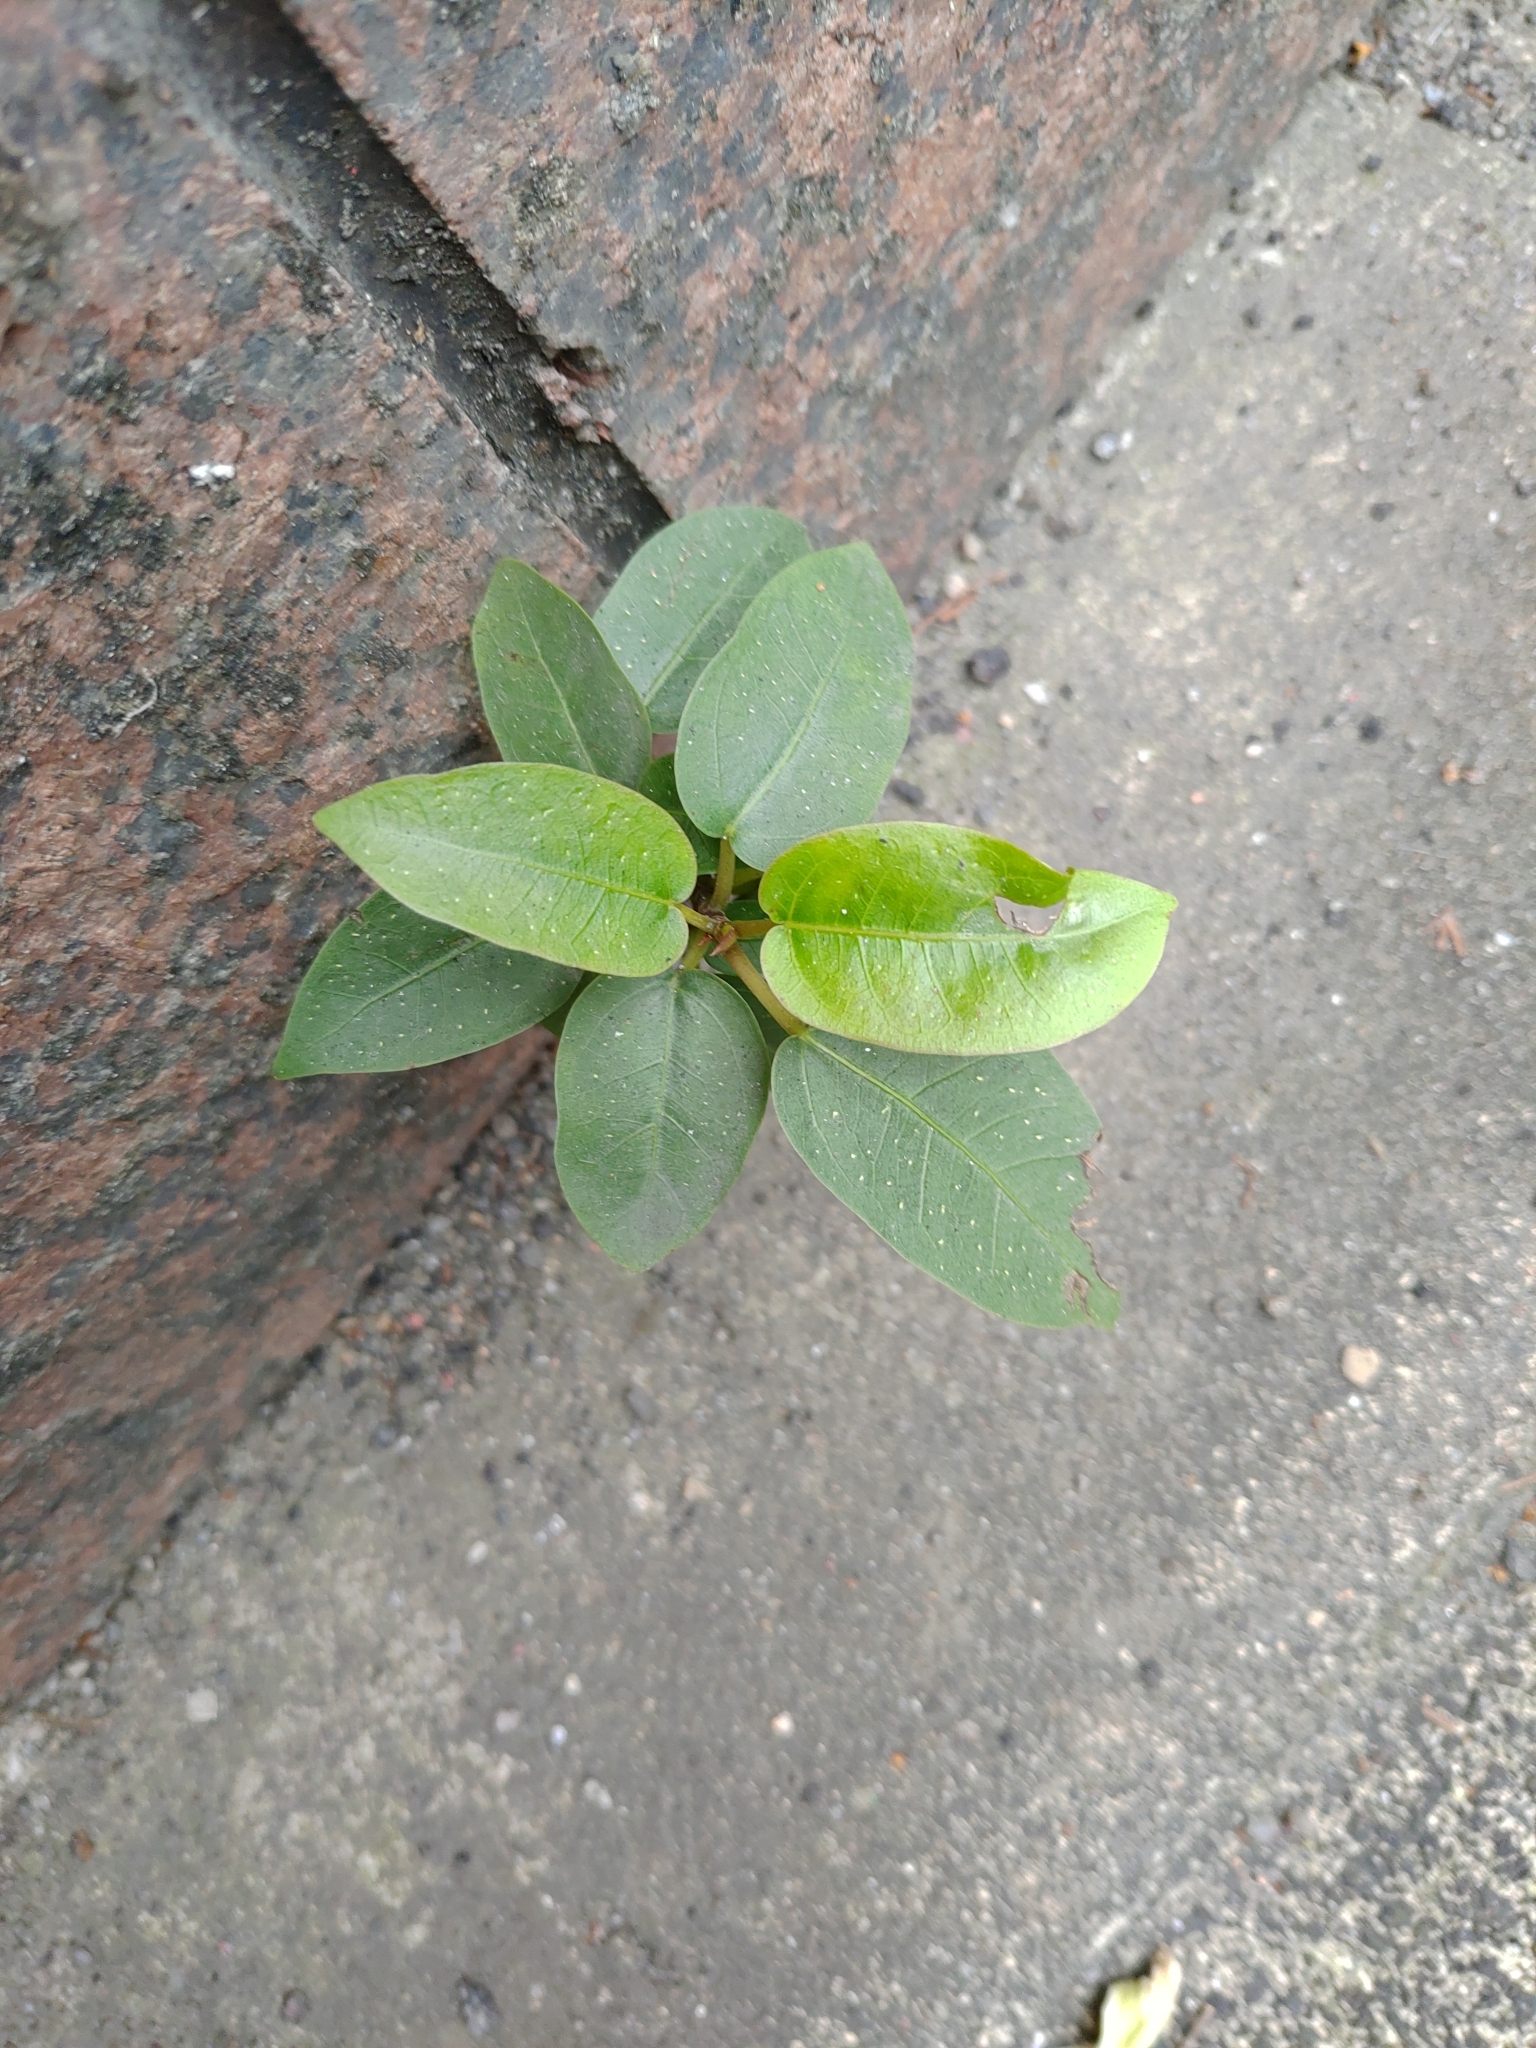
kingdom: Plantae
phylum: Tracheophyta
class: Magnoliopsida
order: Rosales
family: Moraceae
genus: Ficus
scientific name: Ficus subpisocarpa
